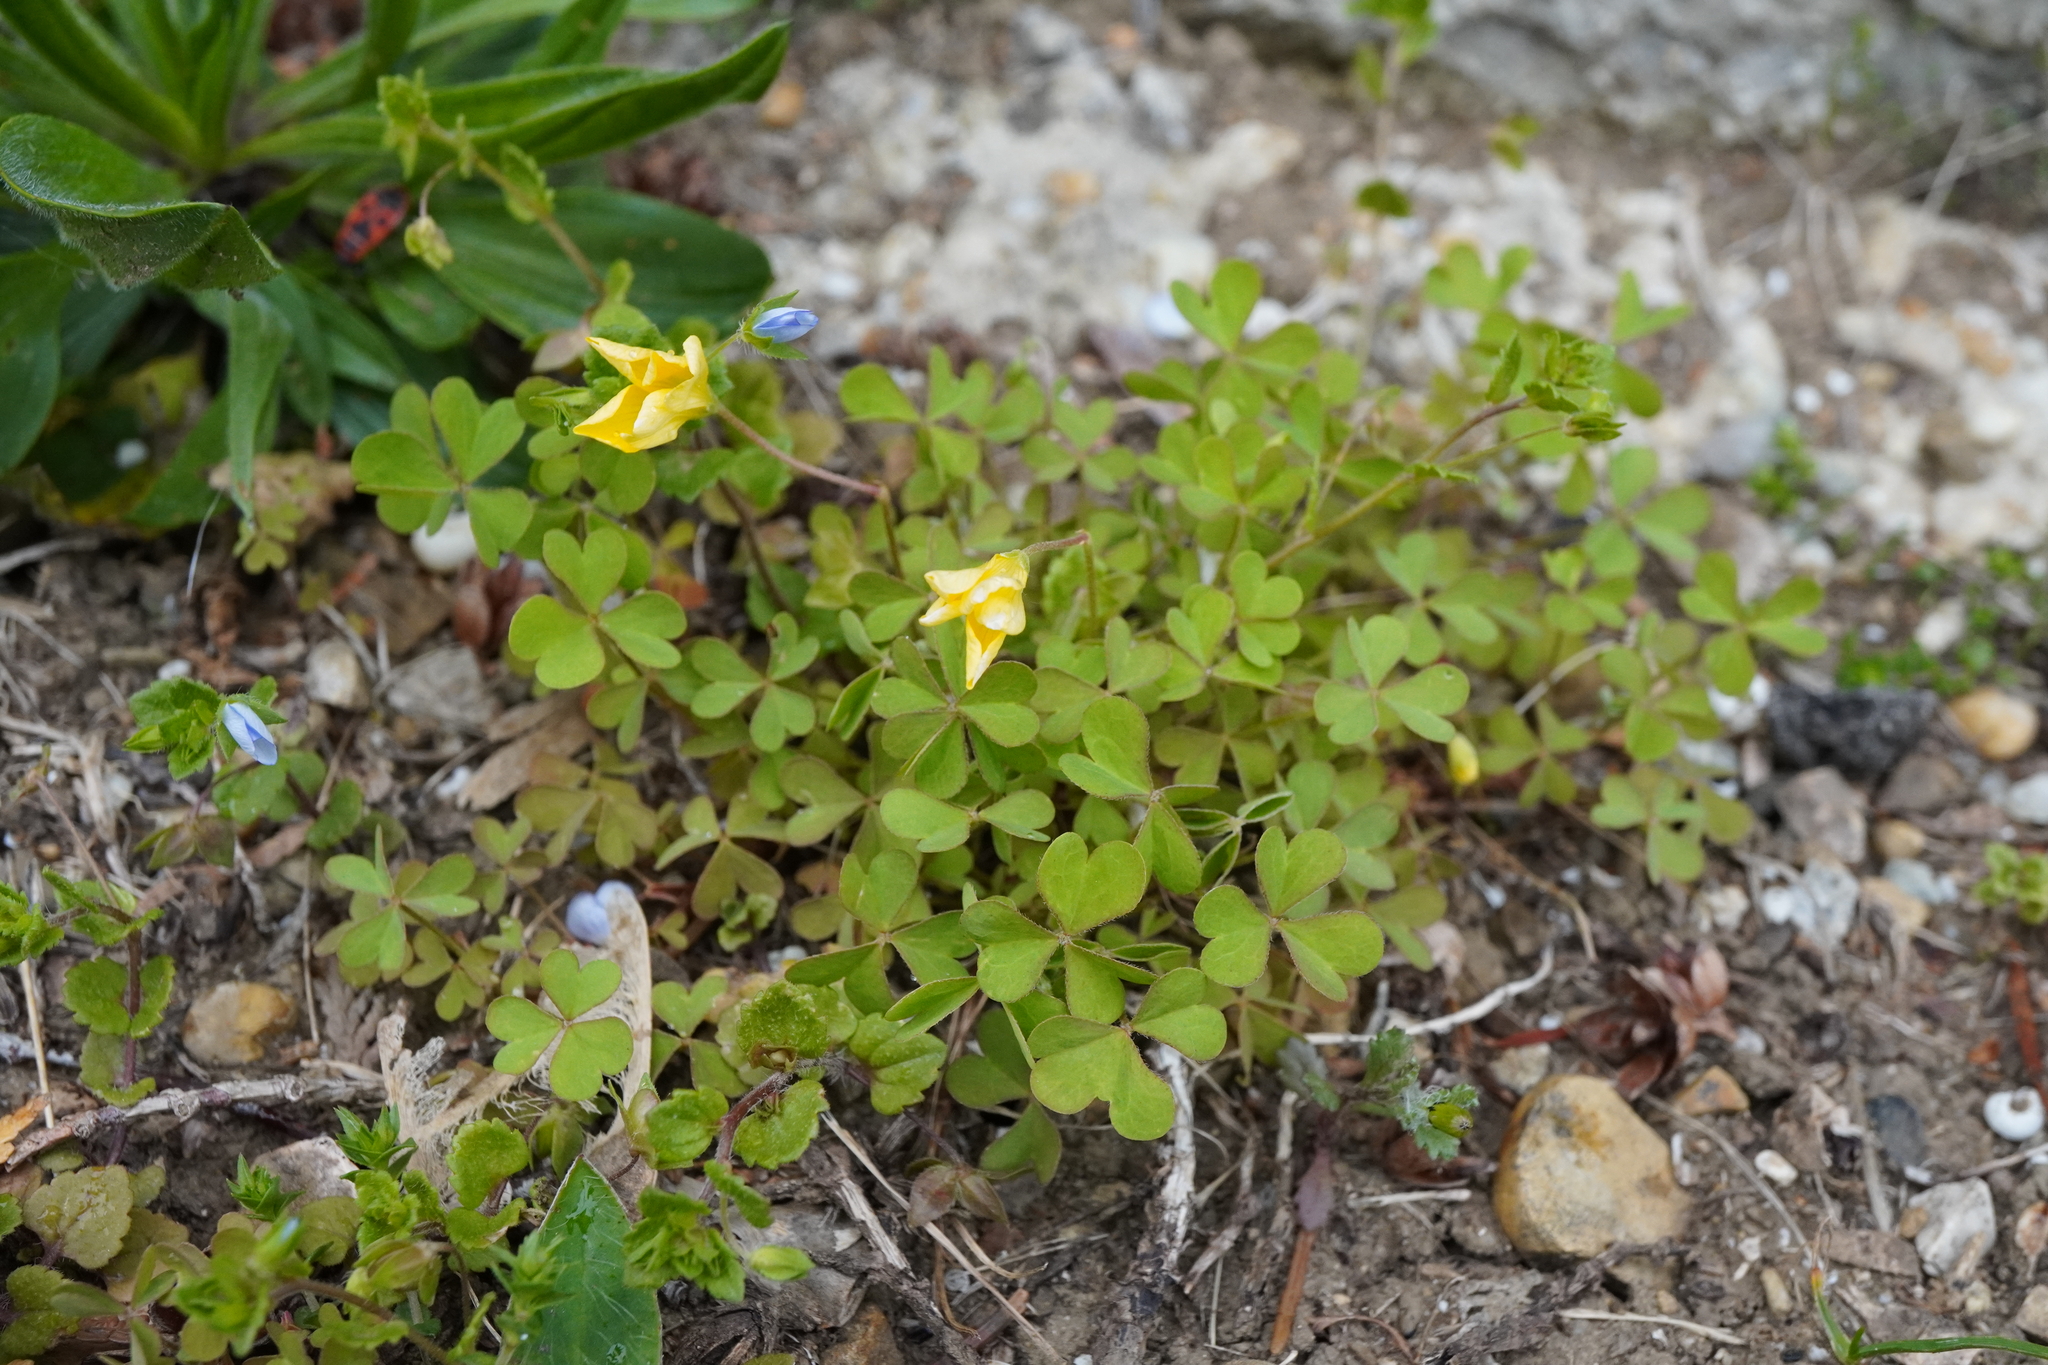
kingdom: Plantae
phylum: Tracheophyta
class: Magnoliopsida
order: Oxalidales
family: Oxalidaceae
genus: Oxalis
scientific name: Oxalis stricta
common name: Upright yellow-sorrel
